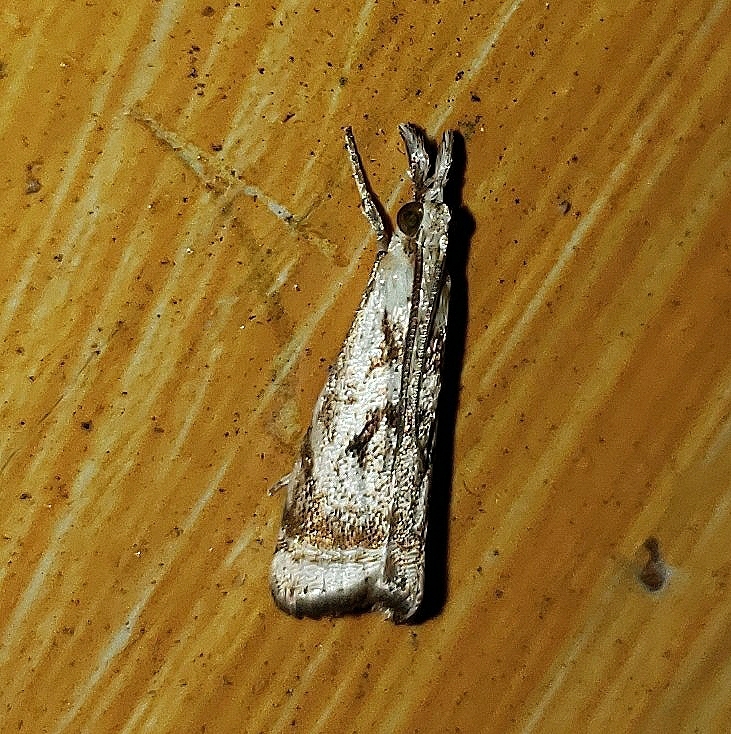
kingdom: Animalia
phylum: Arthropoda
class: Insecta
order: Lepidoptera
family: Crambidae
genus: Microcrambus
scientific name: Microcrambus elegans
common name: Elegant grass-veneer
